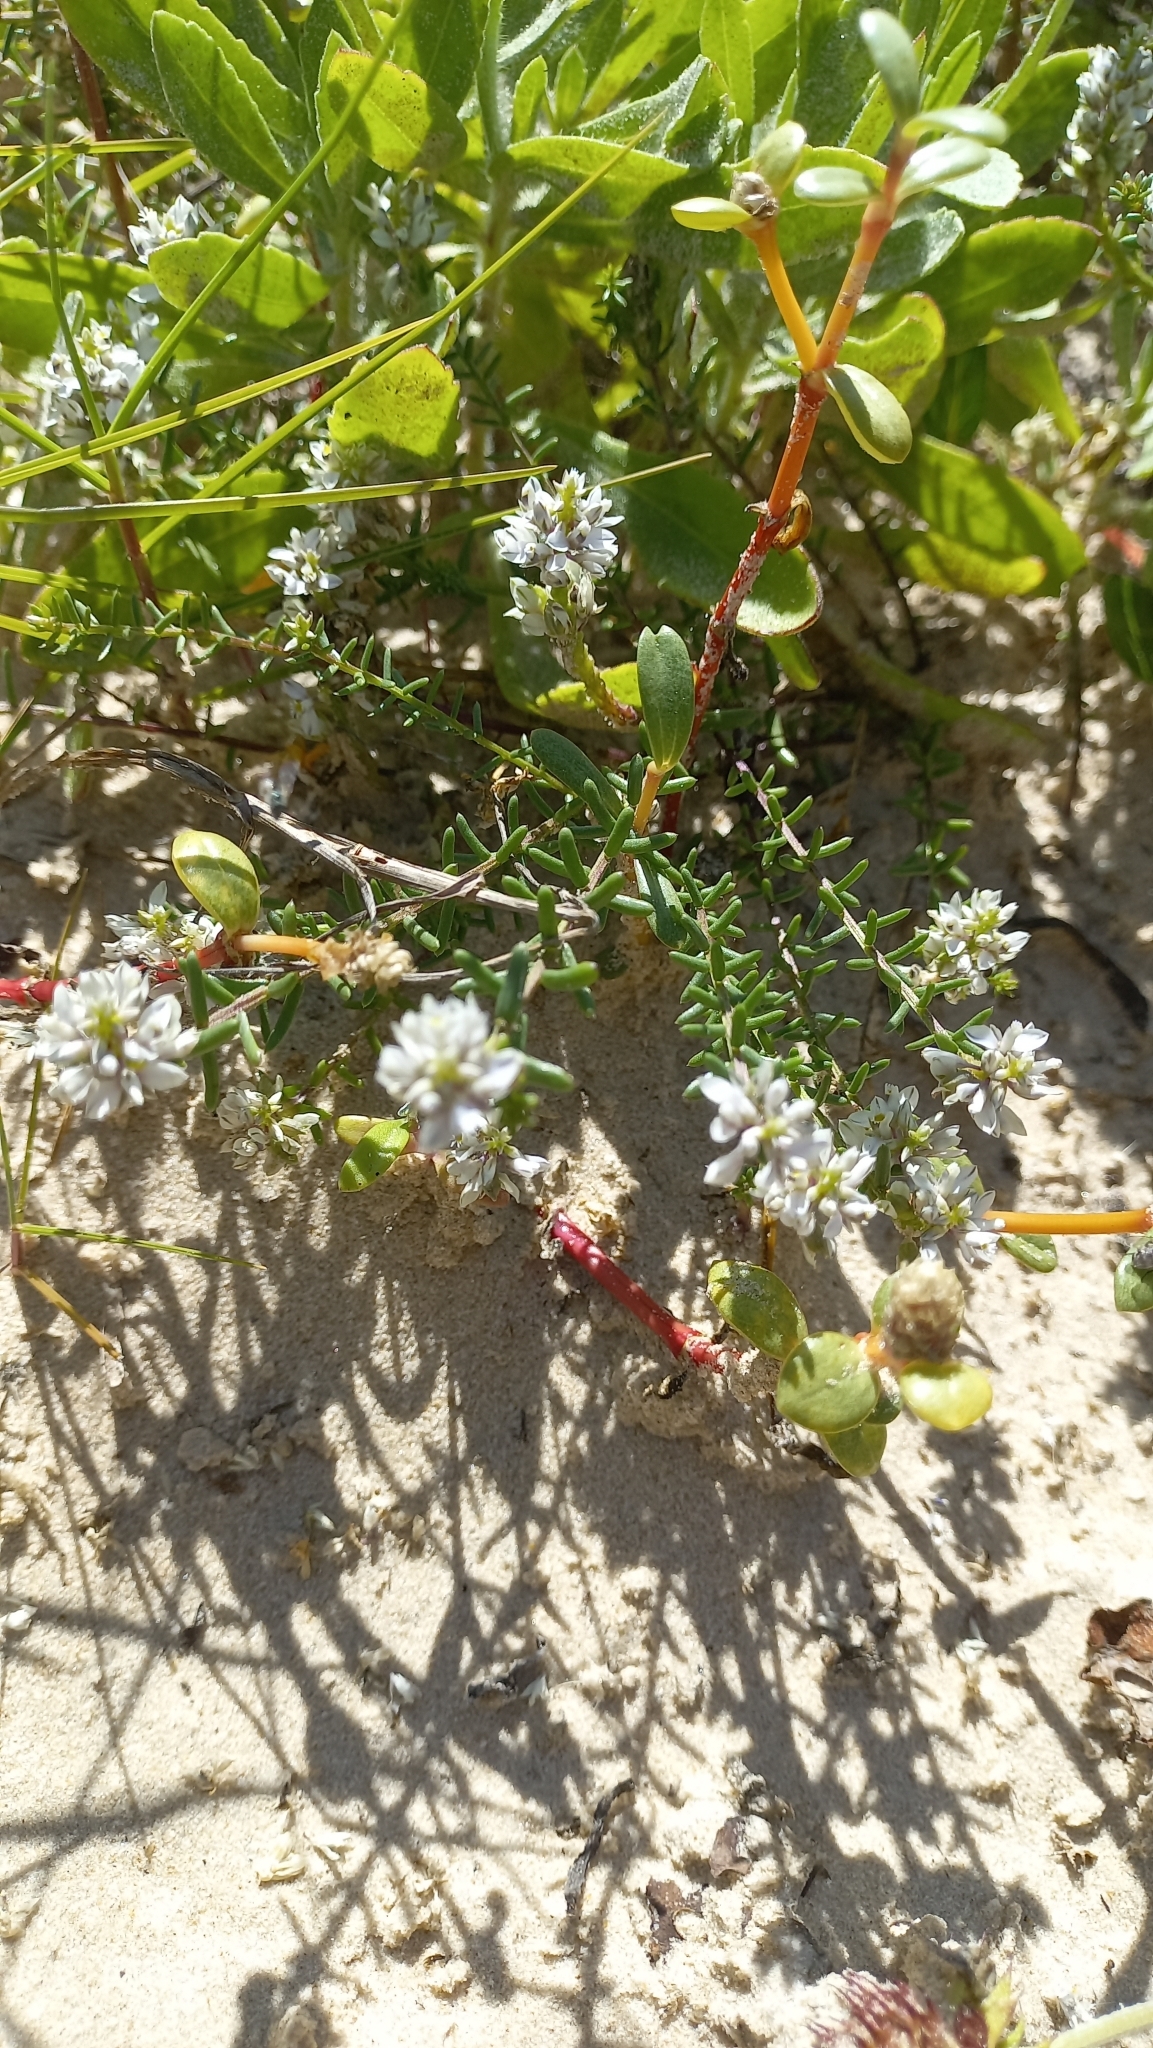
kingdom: Plantae
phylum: Tracheophyta
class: Magnoliopsida
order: Fabales
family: Polygalaceae
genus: Polygala
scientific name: Polygala cyparissias
